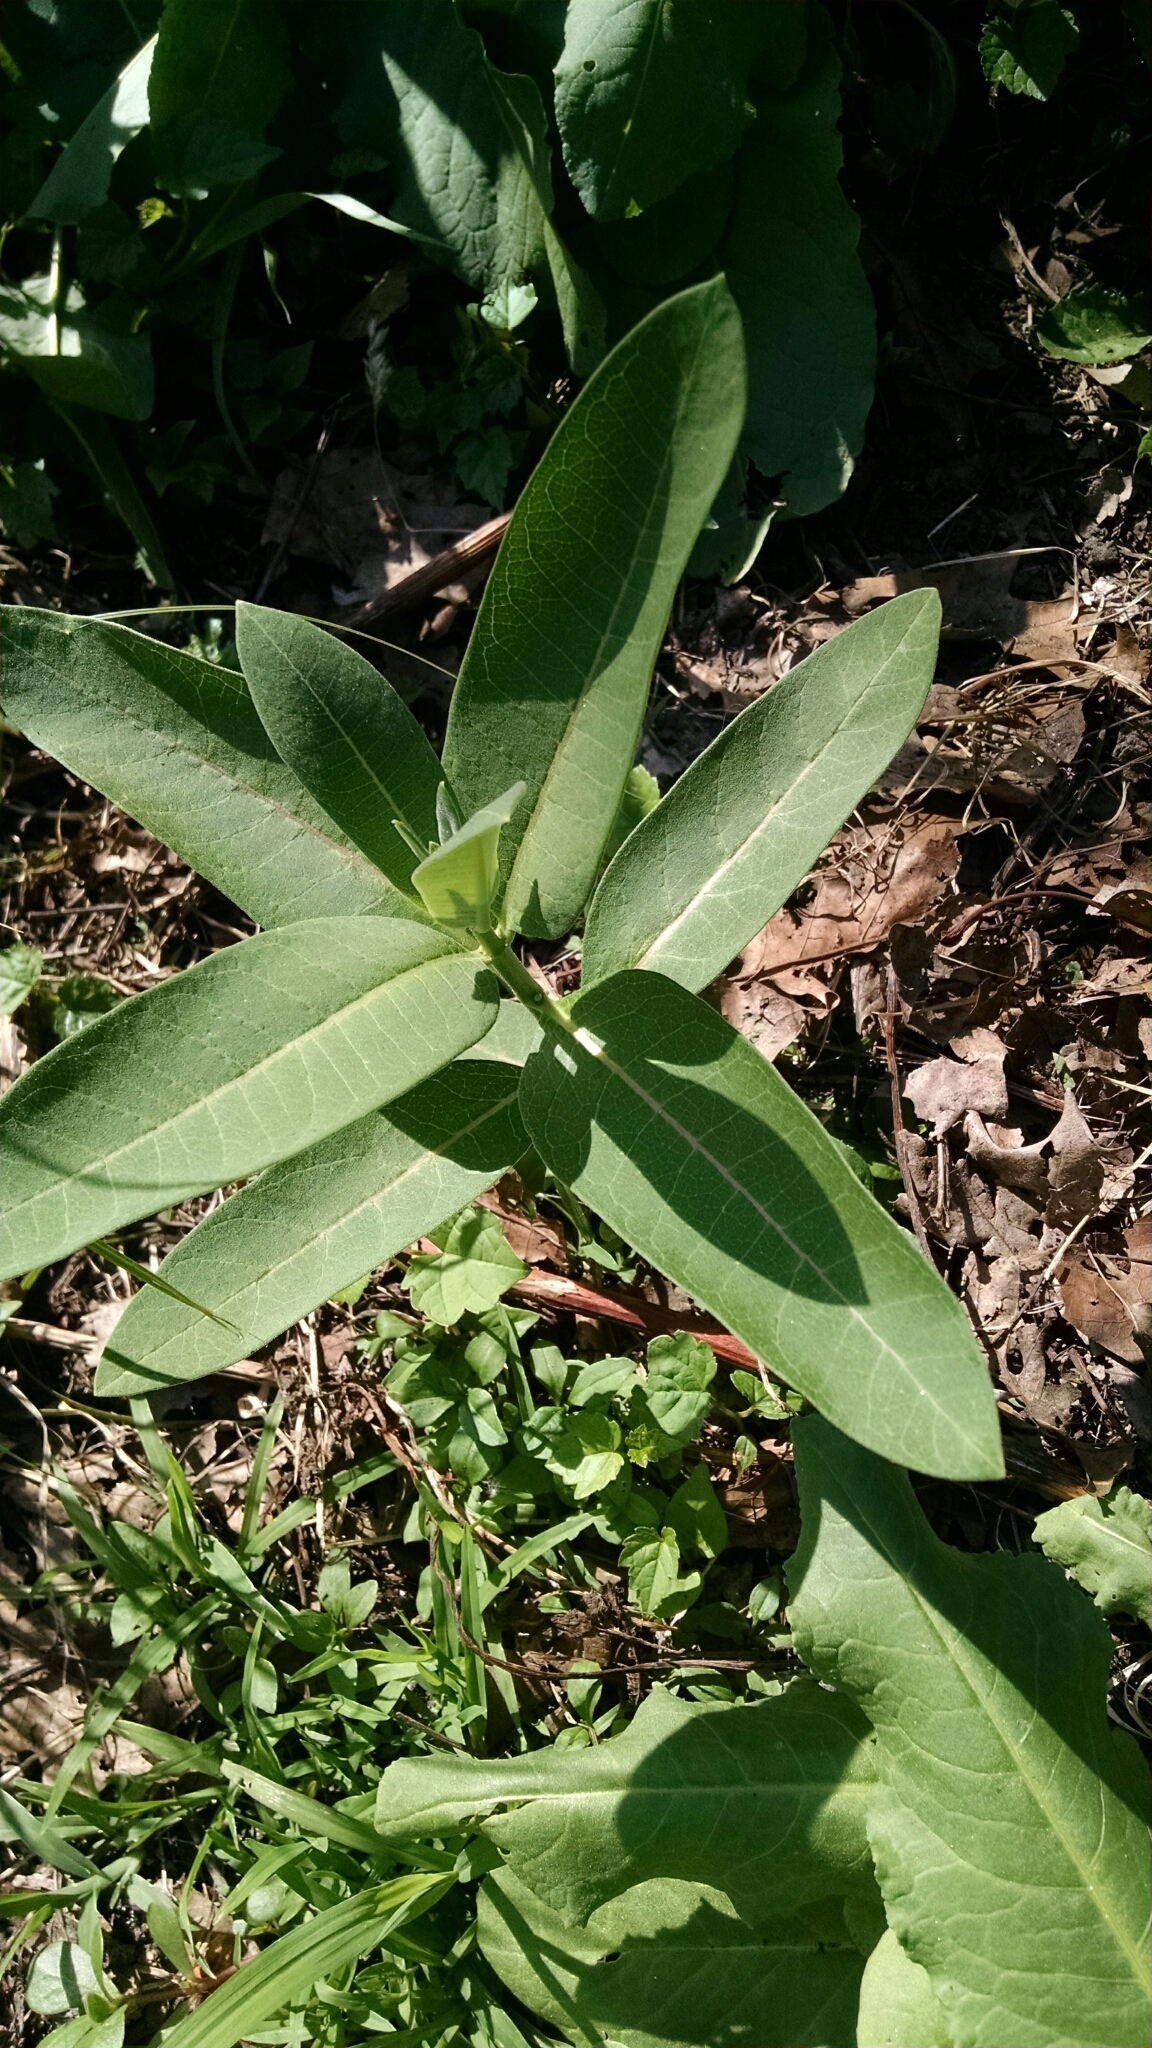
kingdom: Plantae
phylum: Tracheophyta
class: Magnoliopsida
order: Gentianales
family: Apocynaceae
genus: Asclepias
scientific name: Asclepias syriaca
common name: Common milkweed
